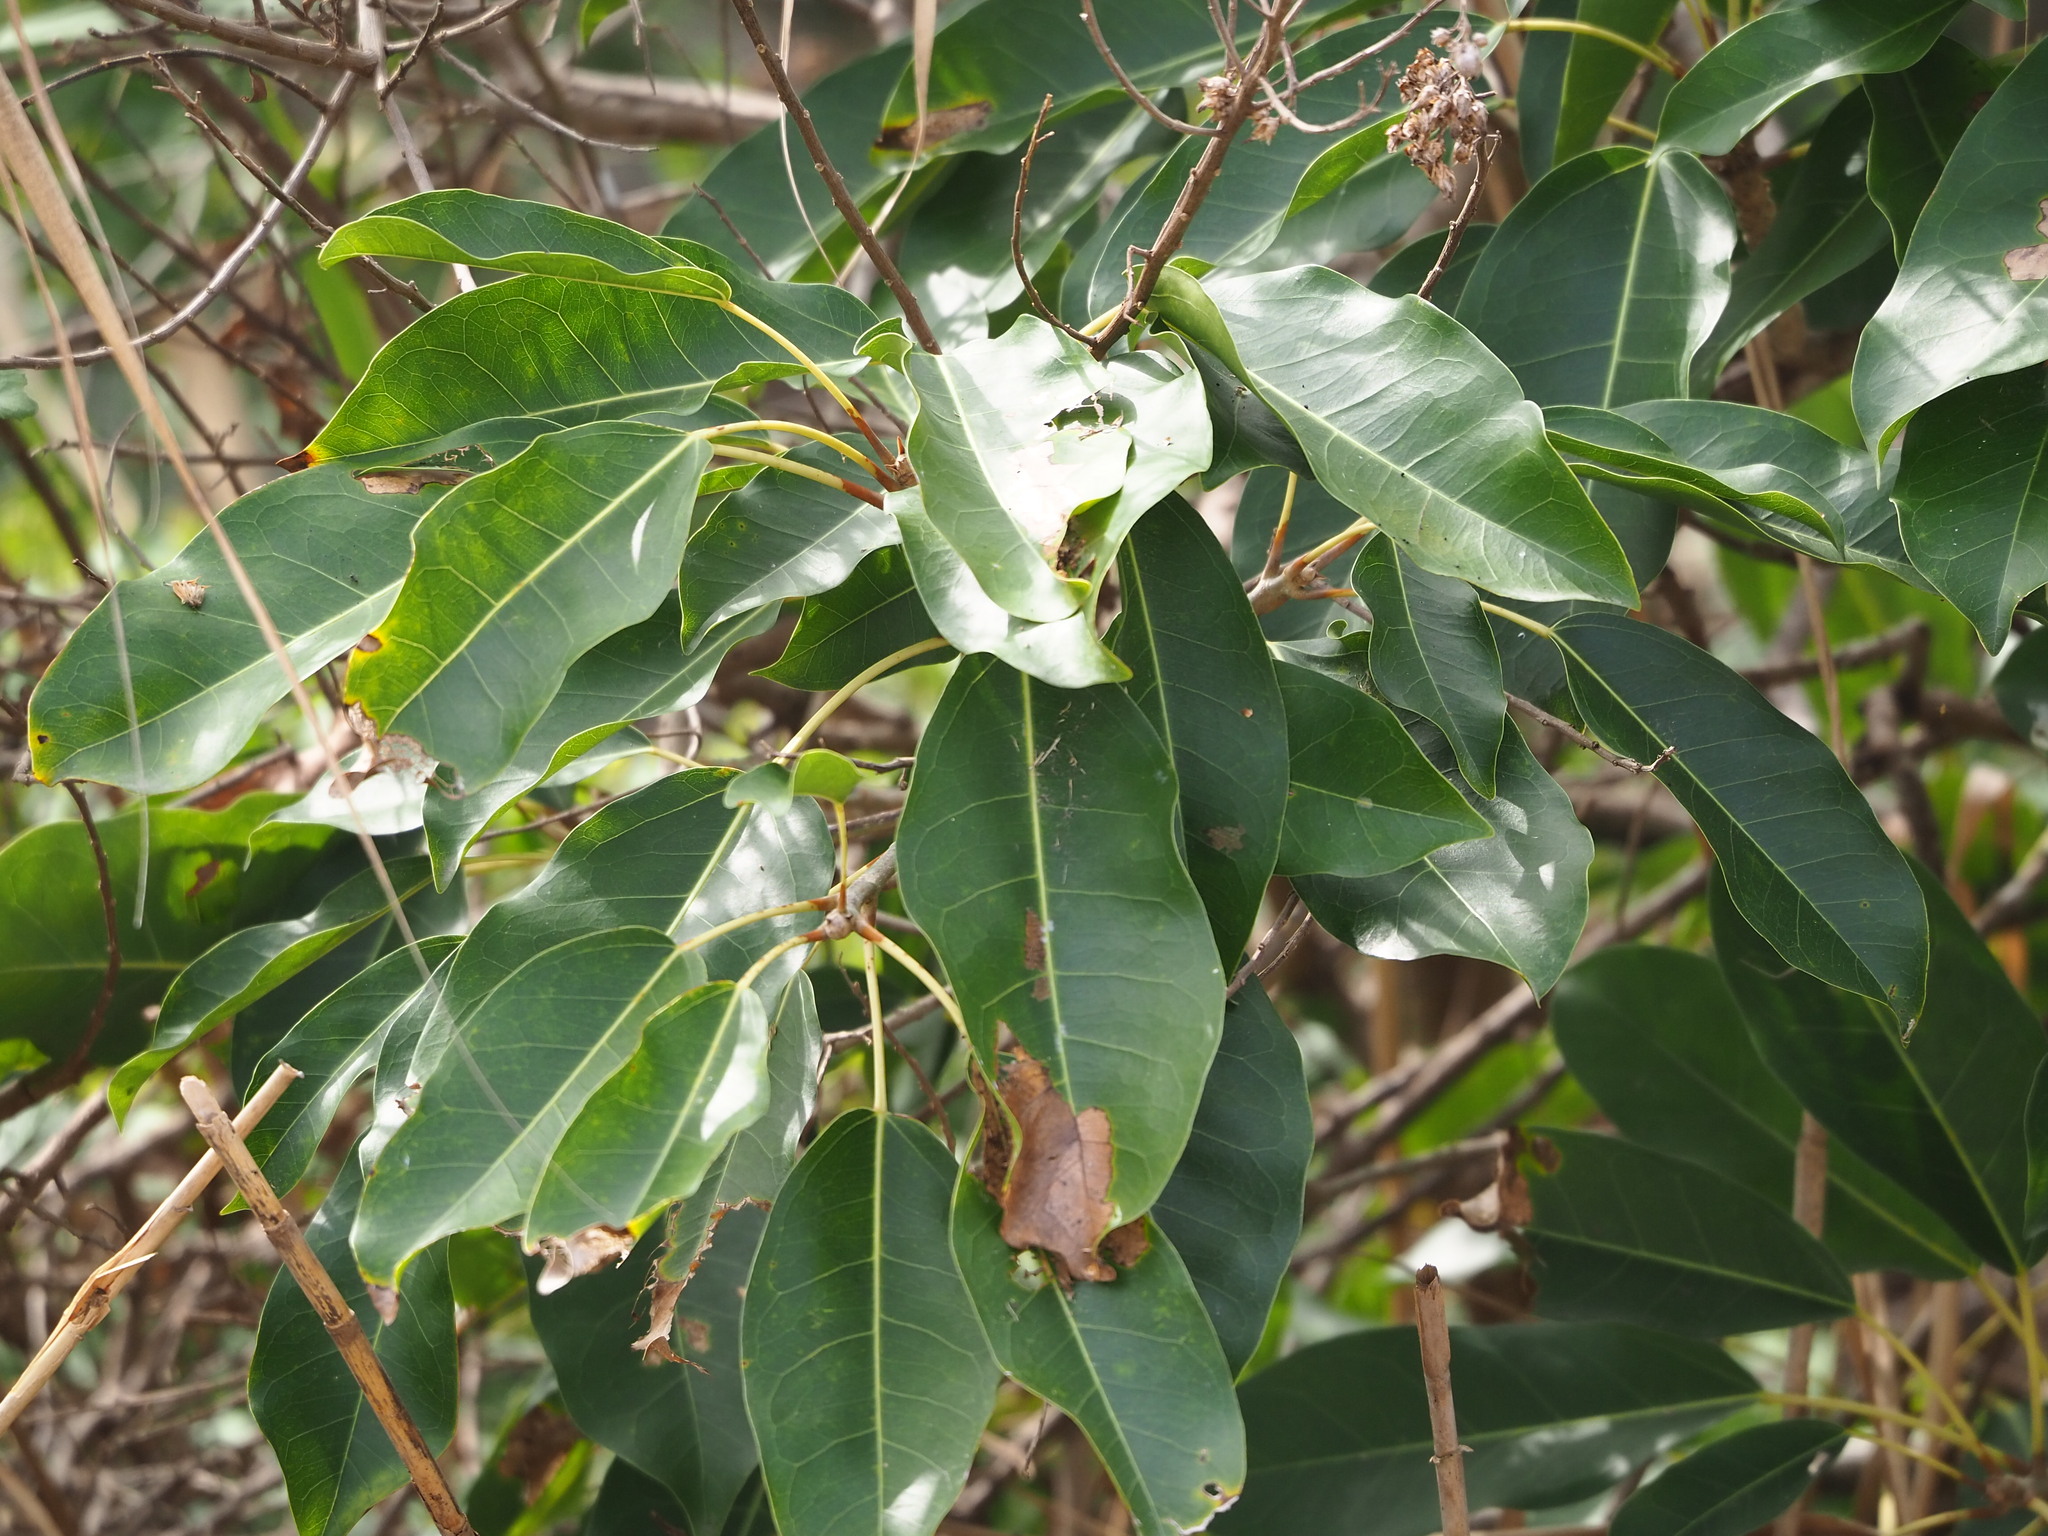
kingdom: Plantae
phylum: Tracheophyta
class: Magnoliopsida
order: Rosales
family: Moraceae
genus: Ficus
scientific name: Ficus subpisocarpa
